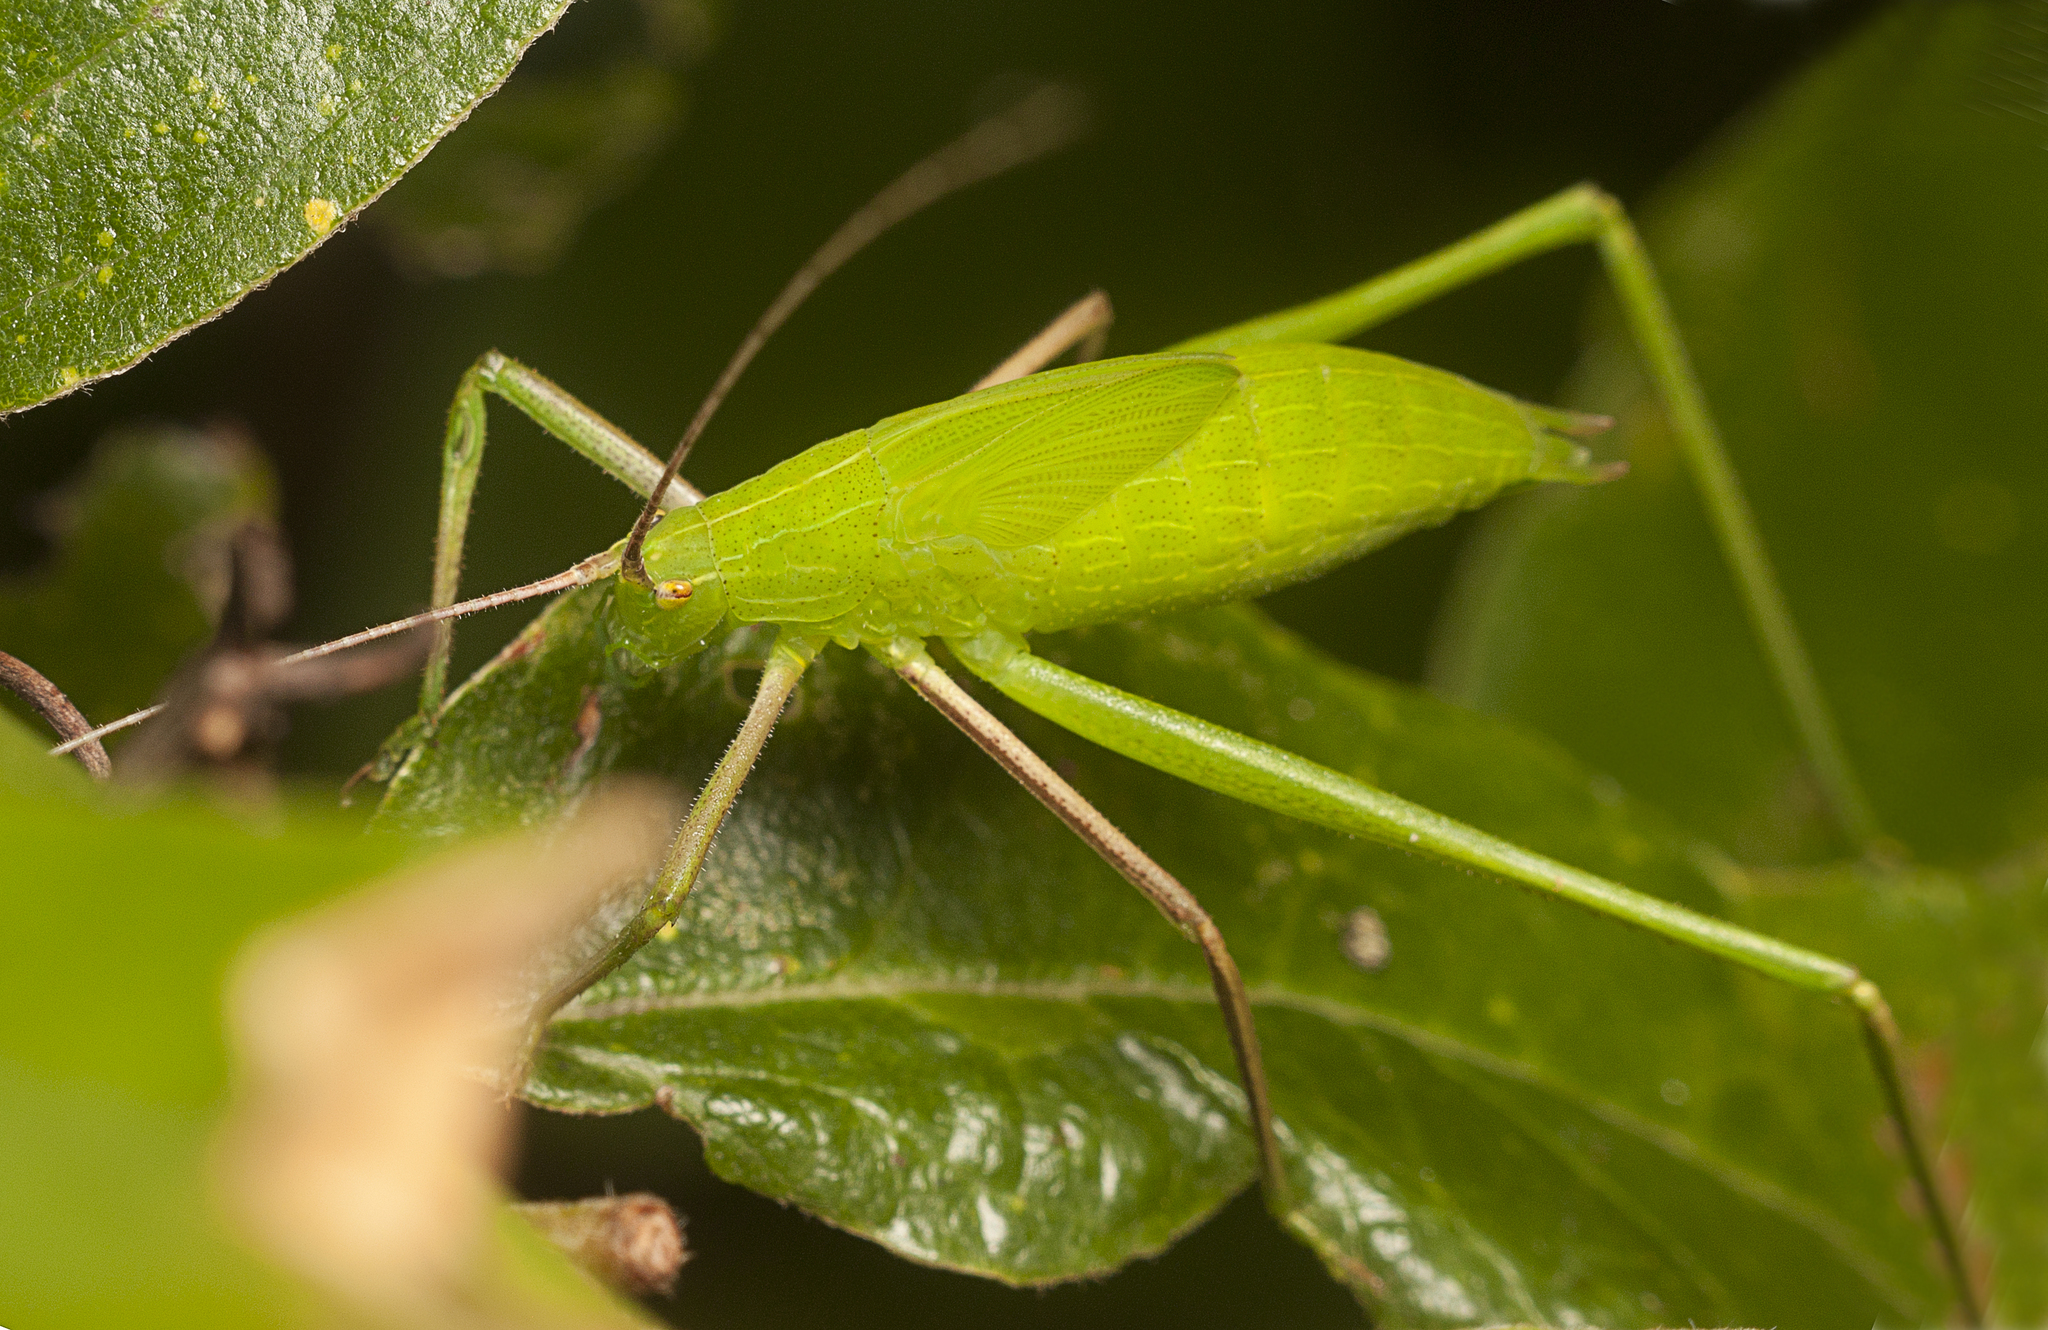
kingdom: Animalia
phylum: Arthropoda
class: Insecta
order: Orthoptera
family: Tettigoniidae
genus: Ducetia
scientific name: Ducetia antipoda
